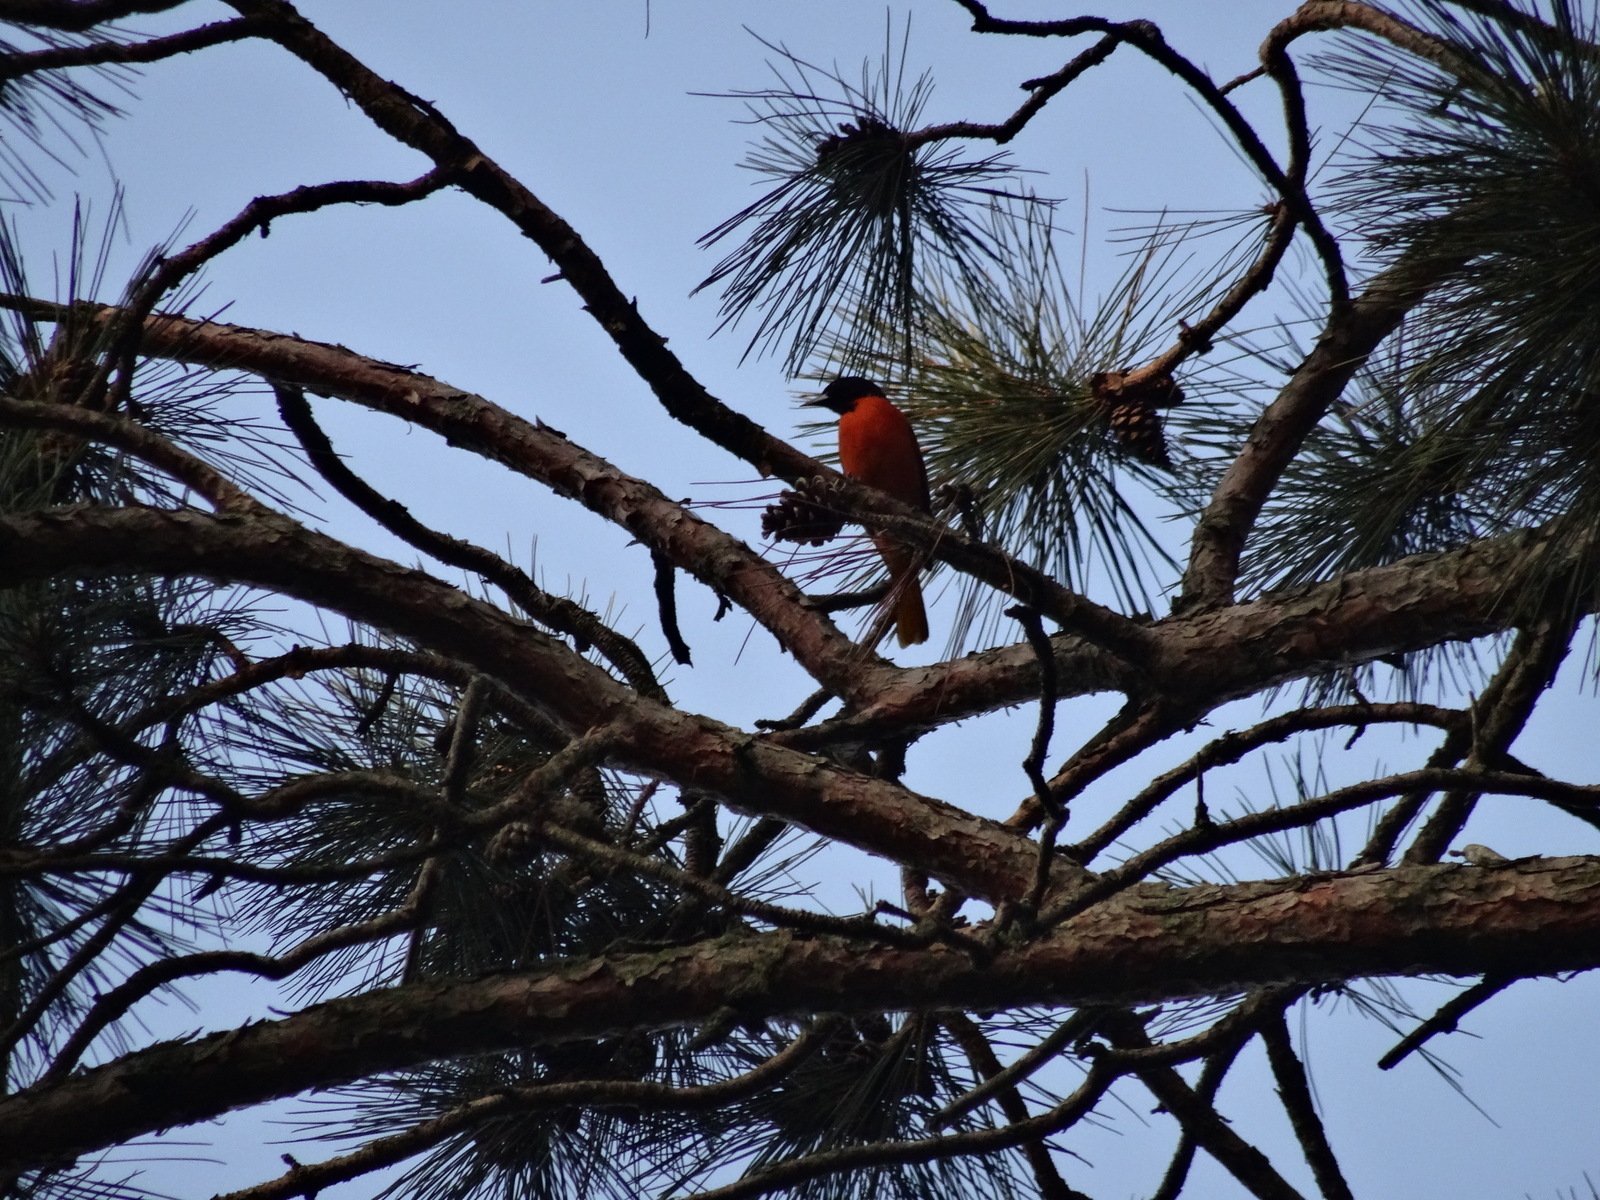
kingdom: Animalia
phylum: Chordata
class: Aves
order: Passeriformes
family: Icteridae
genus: Icterus
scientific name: Icterus galbula
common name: Baltimore oriole
